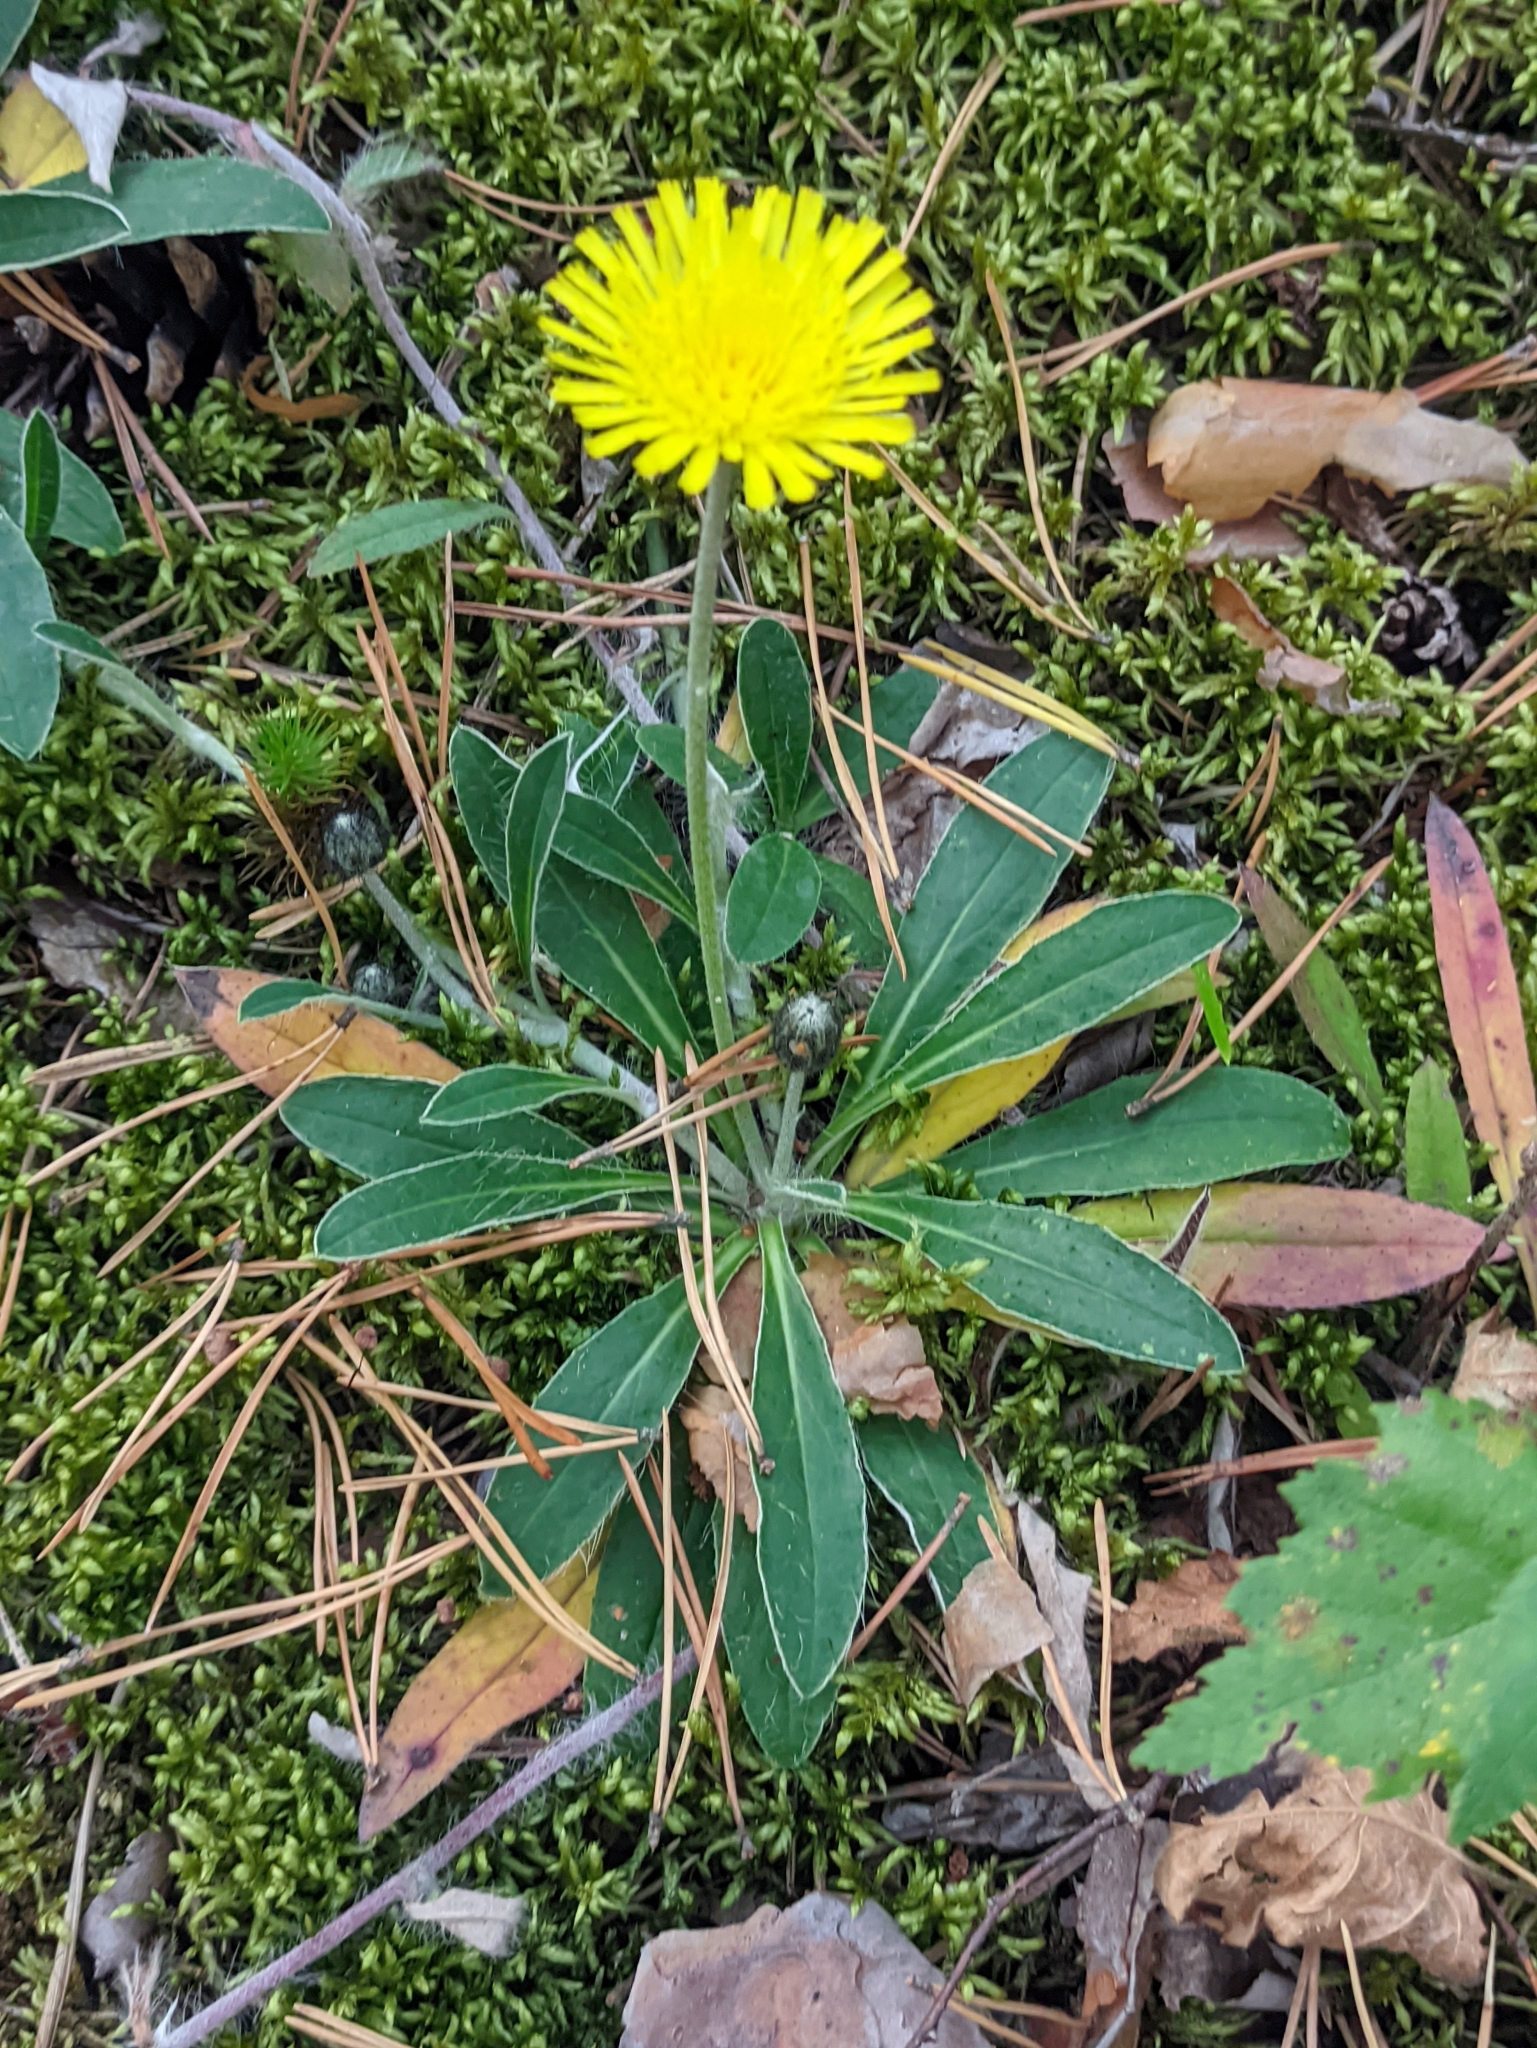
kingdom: Plantae
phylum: Tracheophyta
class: Magnoliopsida
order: Asterales
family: Asteraceae
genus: Pilosella
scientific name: Pilosella officinarum
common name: Mouse-ear hawkweed
